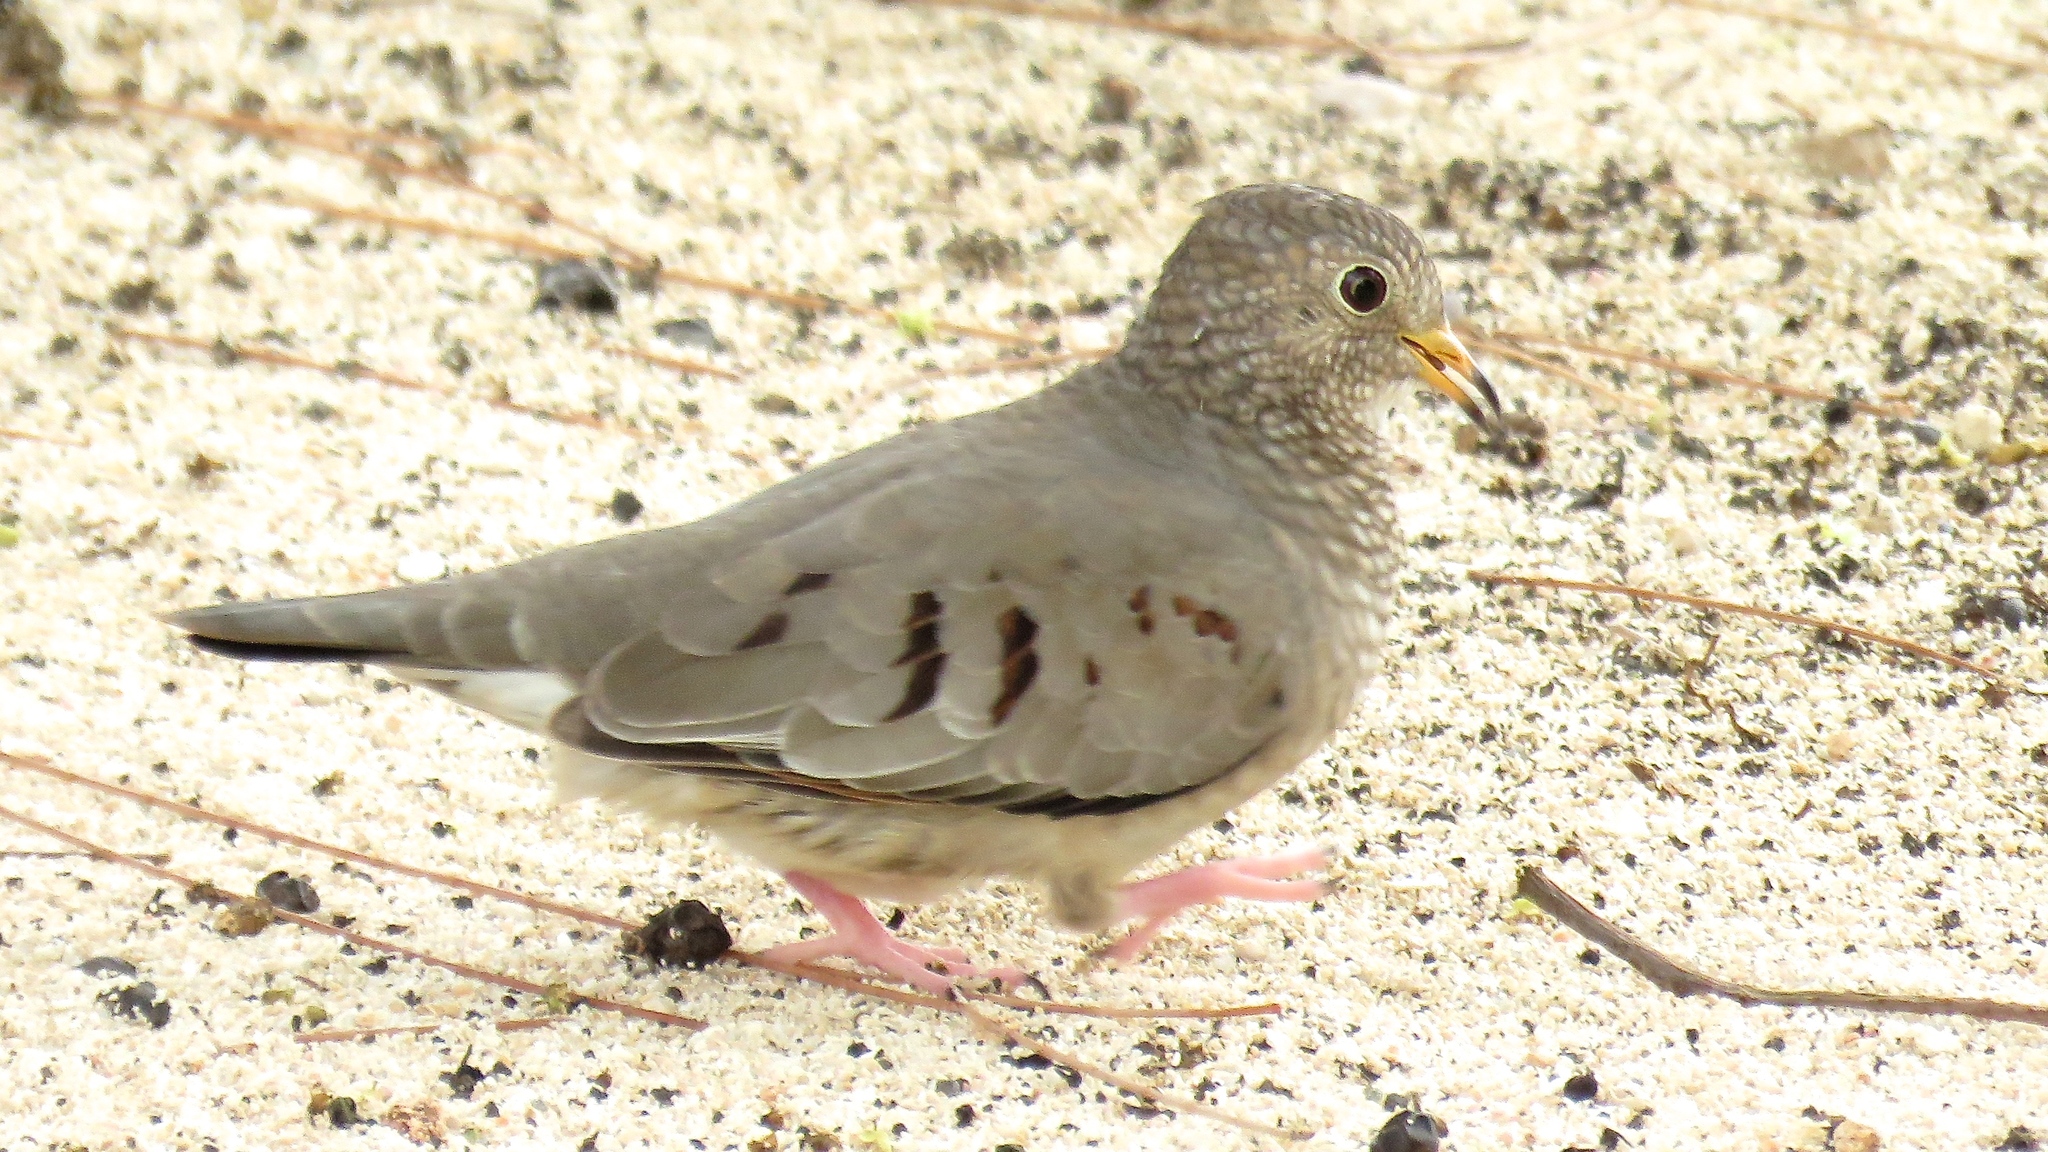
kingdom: Animalia
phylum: Chordata
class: Aves
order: Columbiformes
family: Columbidae
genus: Columbina
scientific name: Columbina passerina
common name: Common ground-dove
